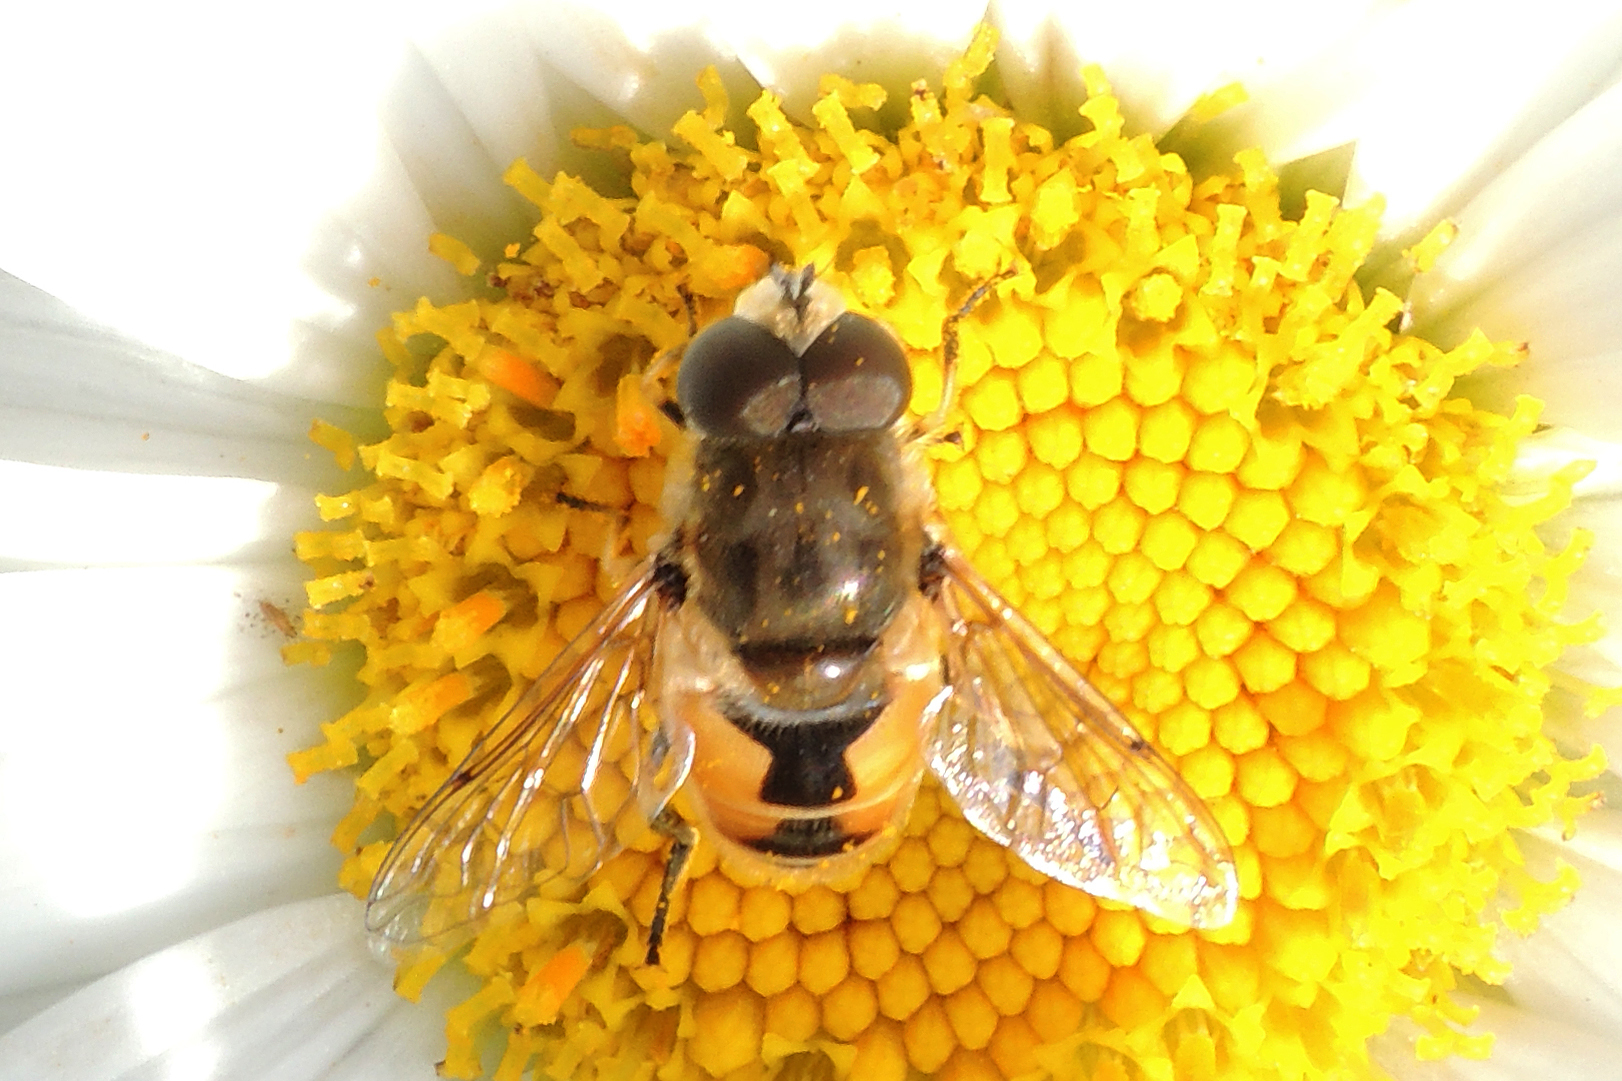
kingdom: Animalia
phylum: Arthropoda
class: Insecta
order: Diptera
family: Syrphidae
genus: Eristalis
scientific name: Eristalis arbustorum
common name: Hover fly
